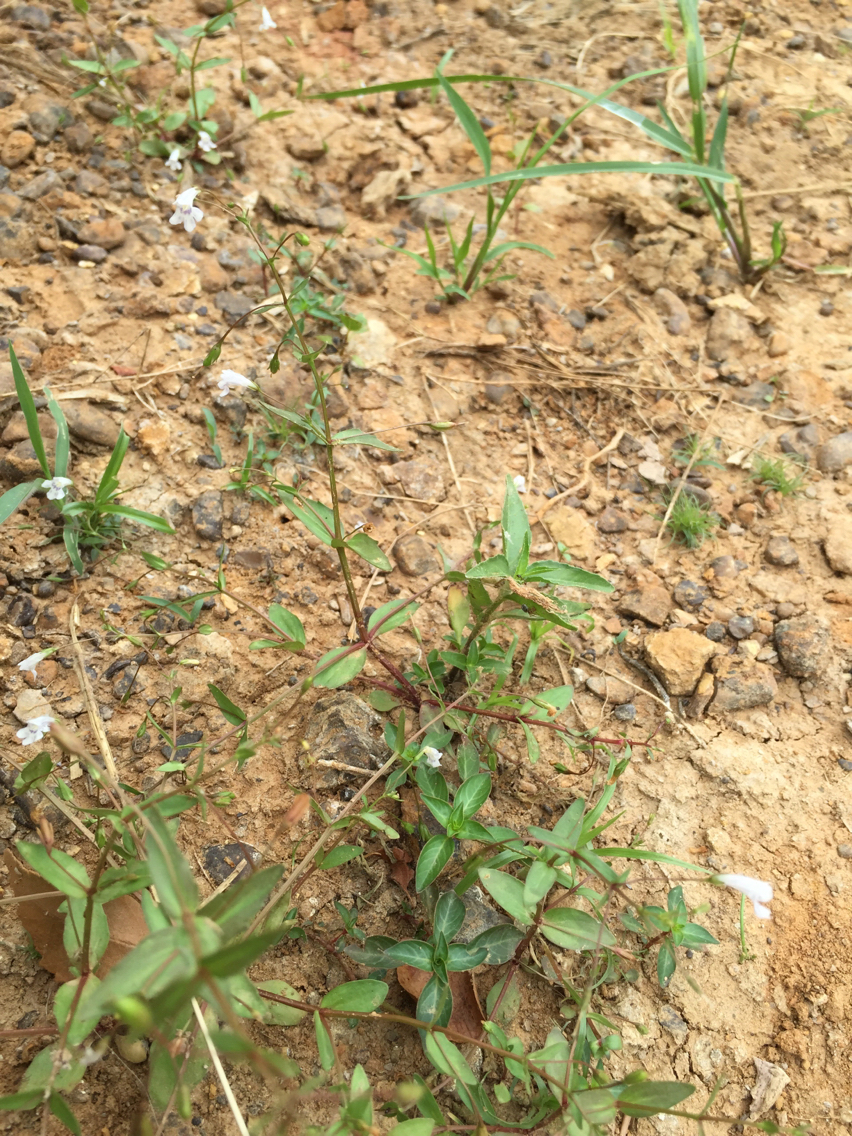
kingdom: Plantae
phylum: Tracheophyta
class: Magnoliopsida
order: Lamiales
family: Linderniaceae
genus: Lindernia
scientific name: Lindernia dubia
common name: Annual false pimpernel
